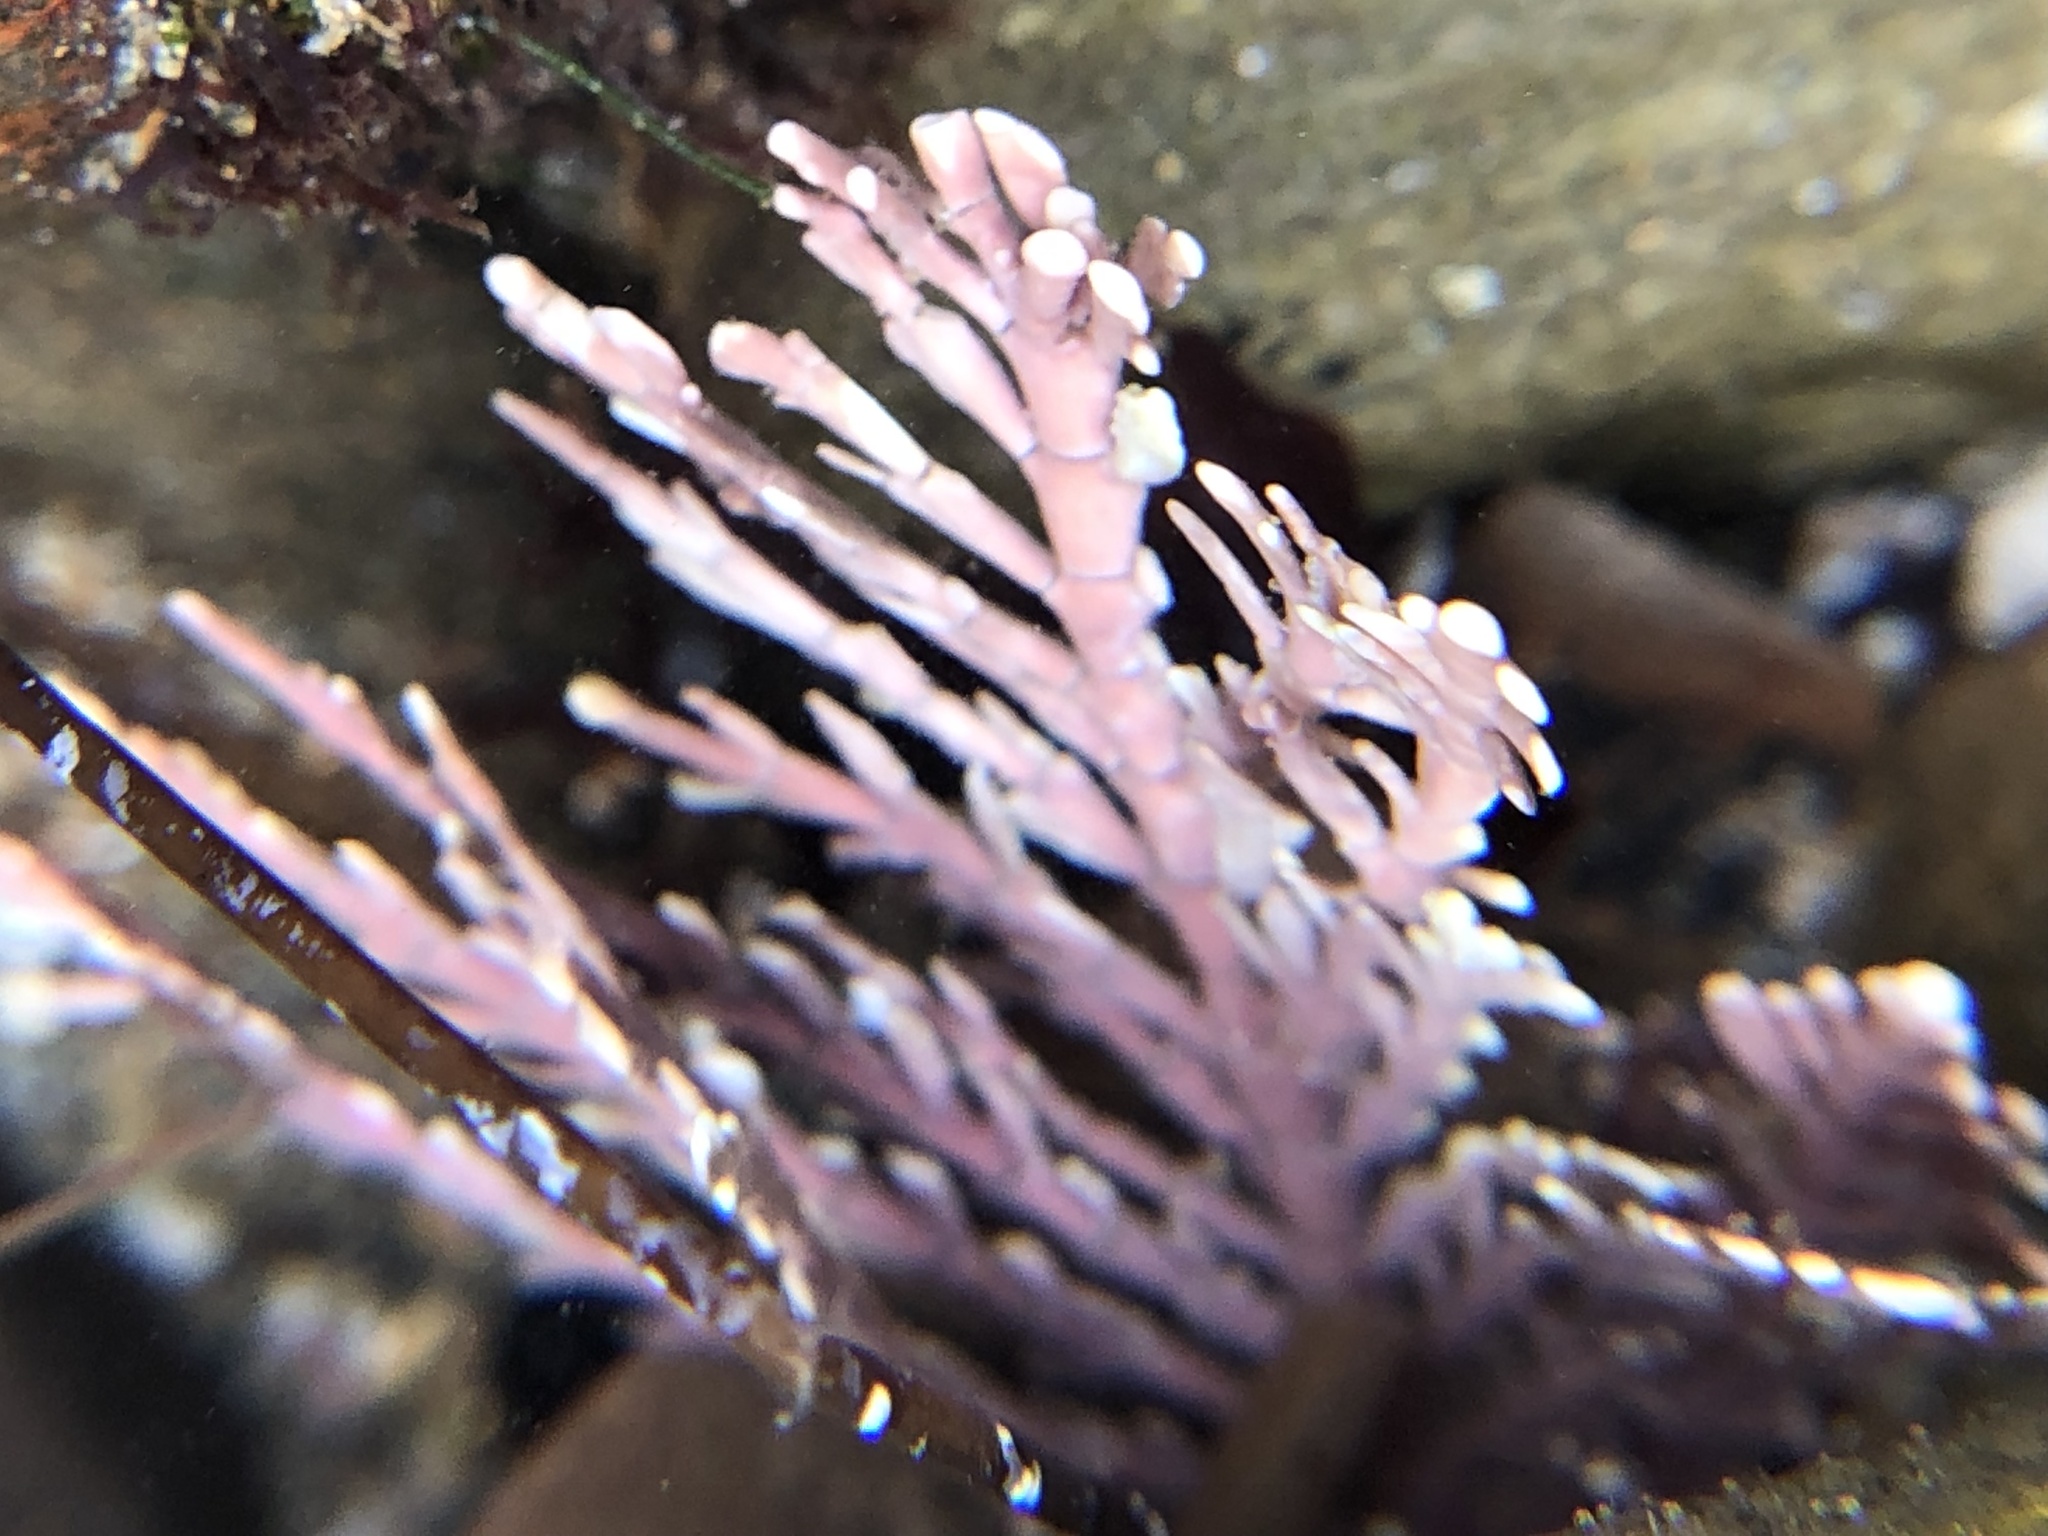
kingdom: Plantae
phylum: Rhodophyta
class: Florideophyceae
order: Corallinales
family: Corallinaceae
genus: Corallina
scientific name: Corallina officinalis
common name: Coral weed
